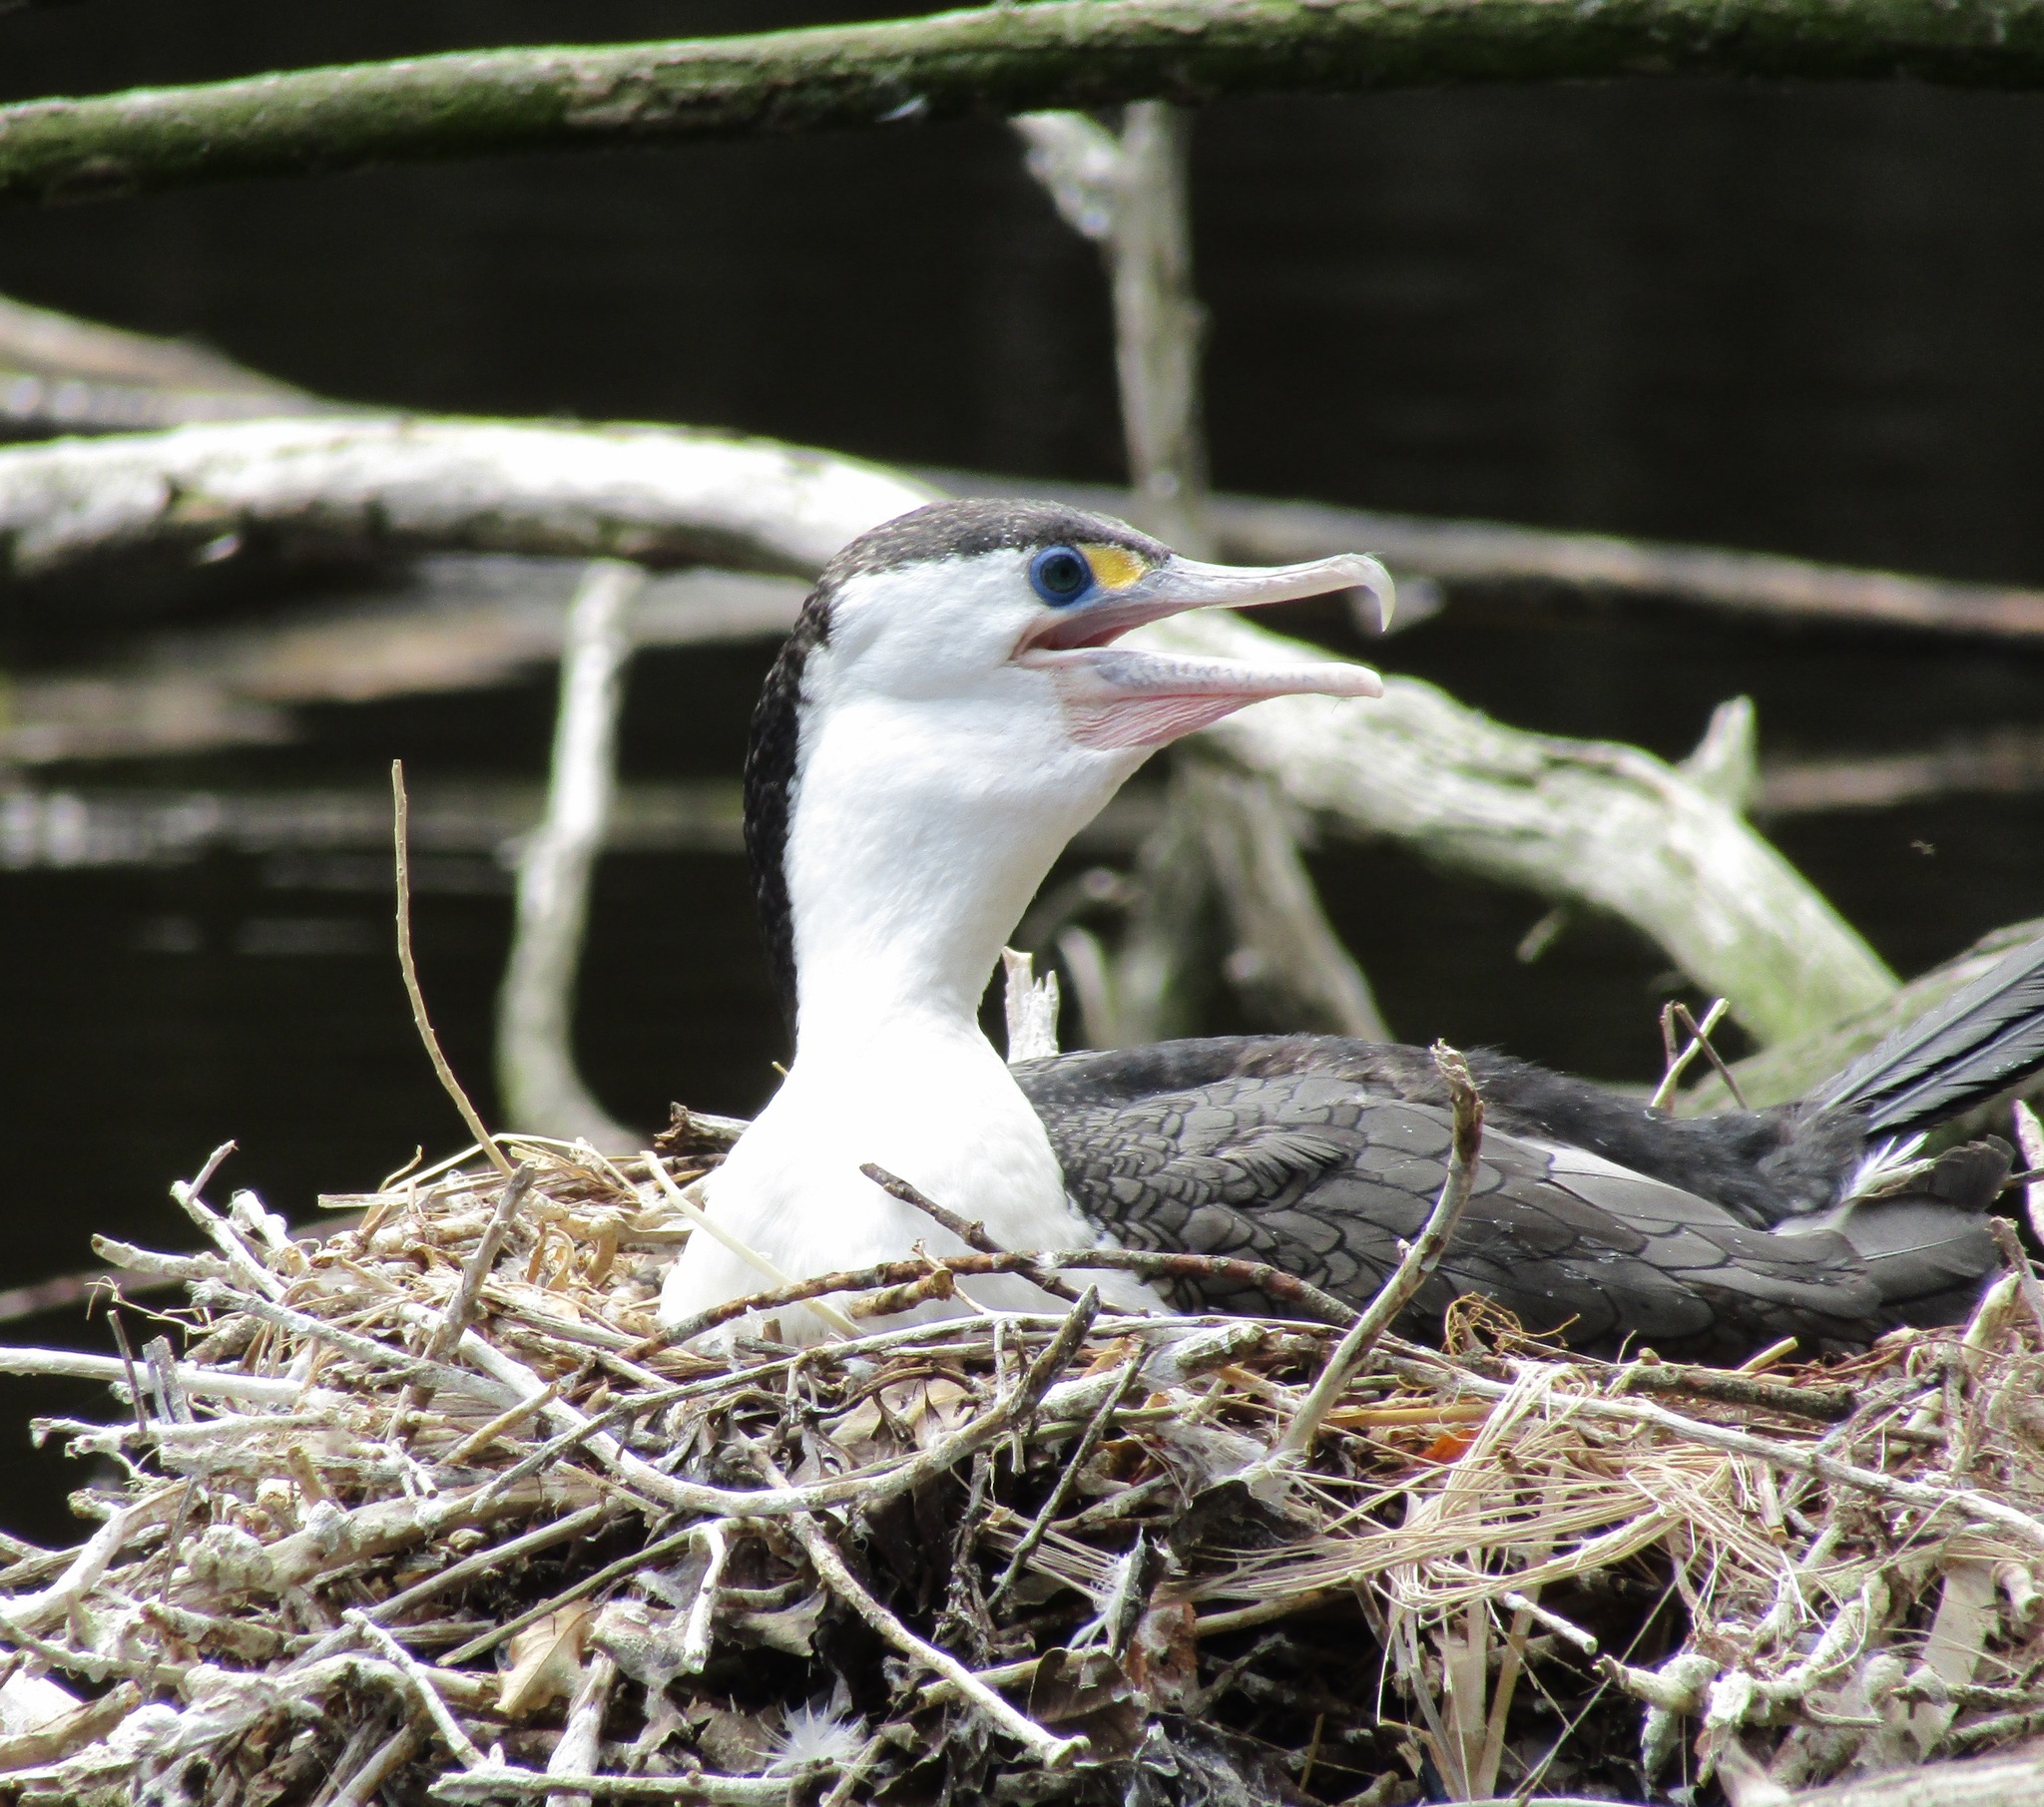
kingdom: Animalia
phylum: Chordata
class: Aves
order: Suliformes
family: Phalacrocoracidae
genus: Phalacrocorax
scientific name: Phalacrocorax varius
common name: Pied cormorant
